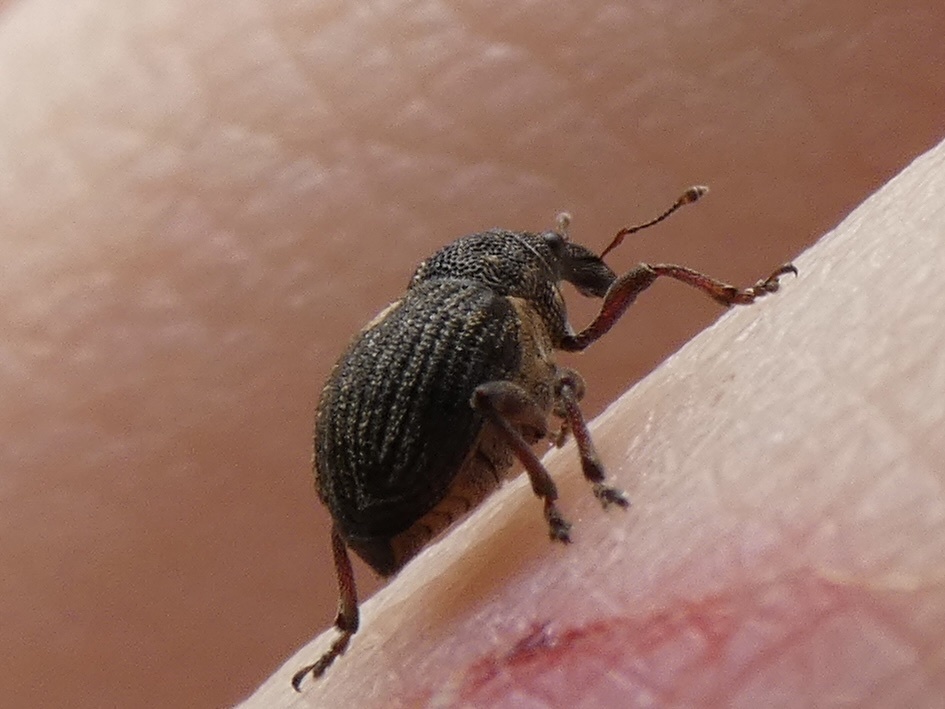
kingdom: Animalia
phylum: Arthropoda
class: Insecta
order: Coleoptera
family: Curculionidae
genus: Rhinoncus
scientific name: Rhinoncus leucostigma
